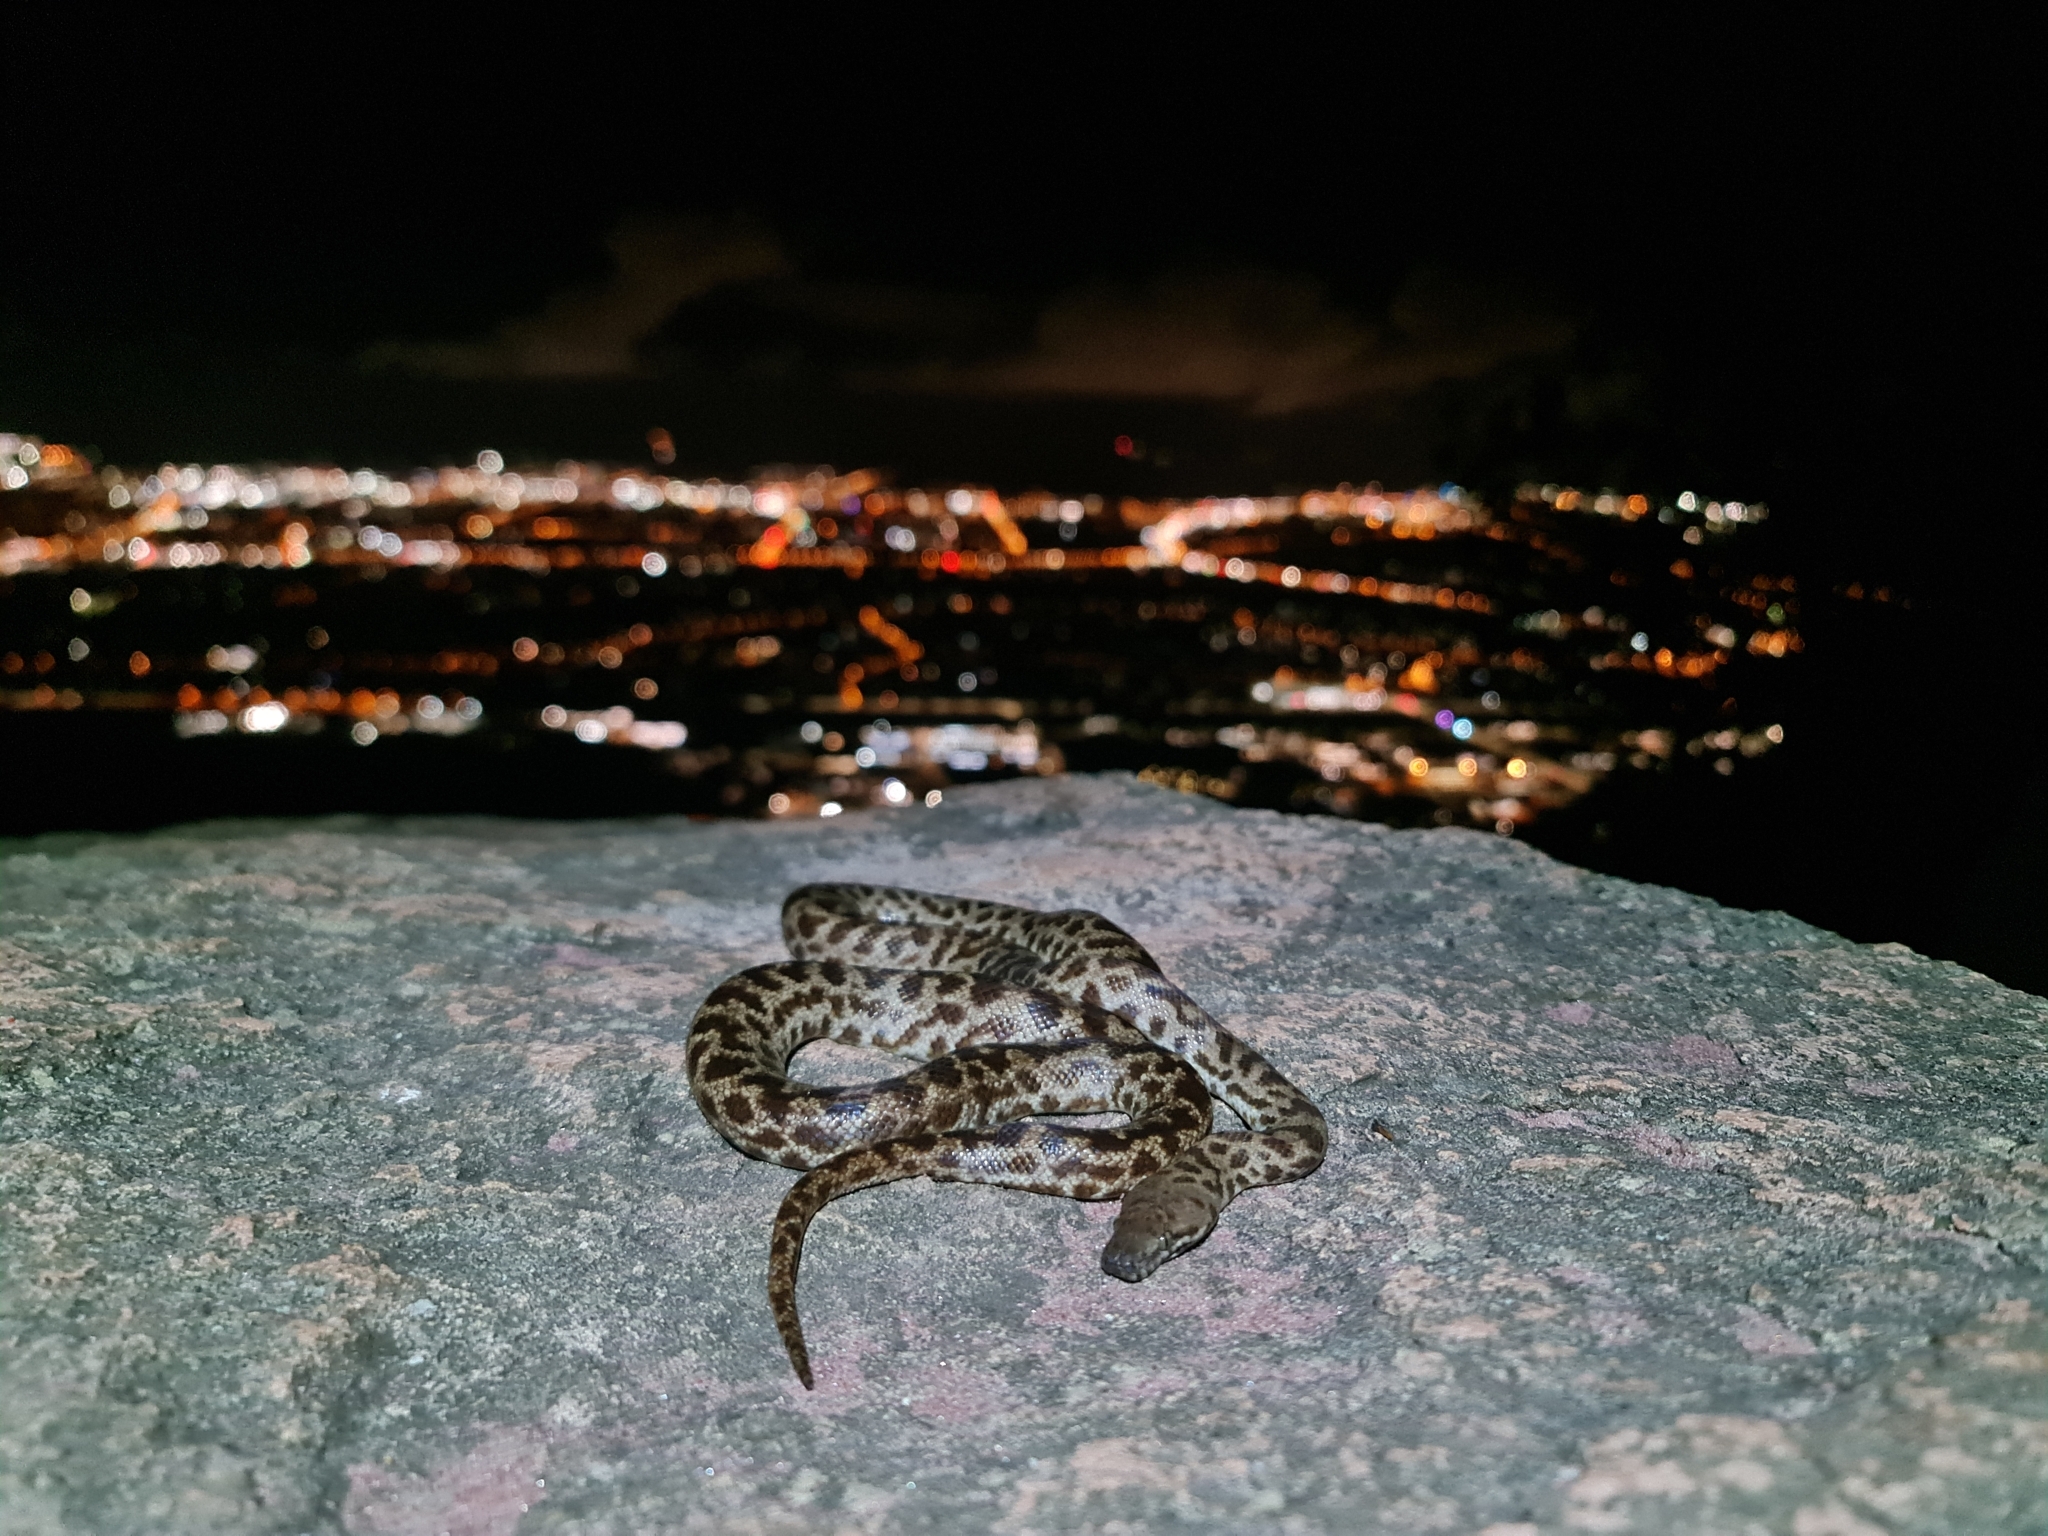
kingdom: Animalia
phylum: Chordata
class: Squamata
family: Pythonidae
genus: Antaresia
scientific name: Antaresia maculosa
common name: Eastern childrens python
